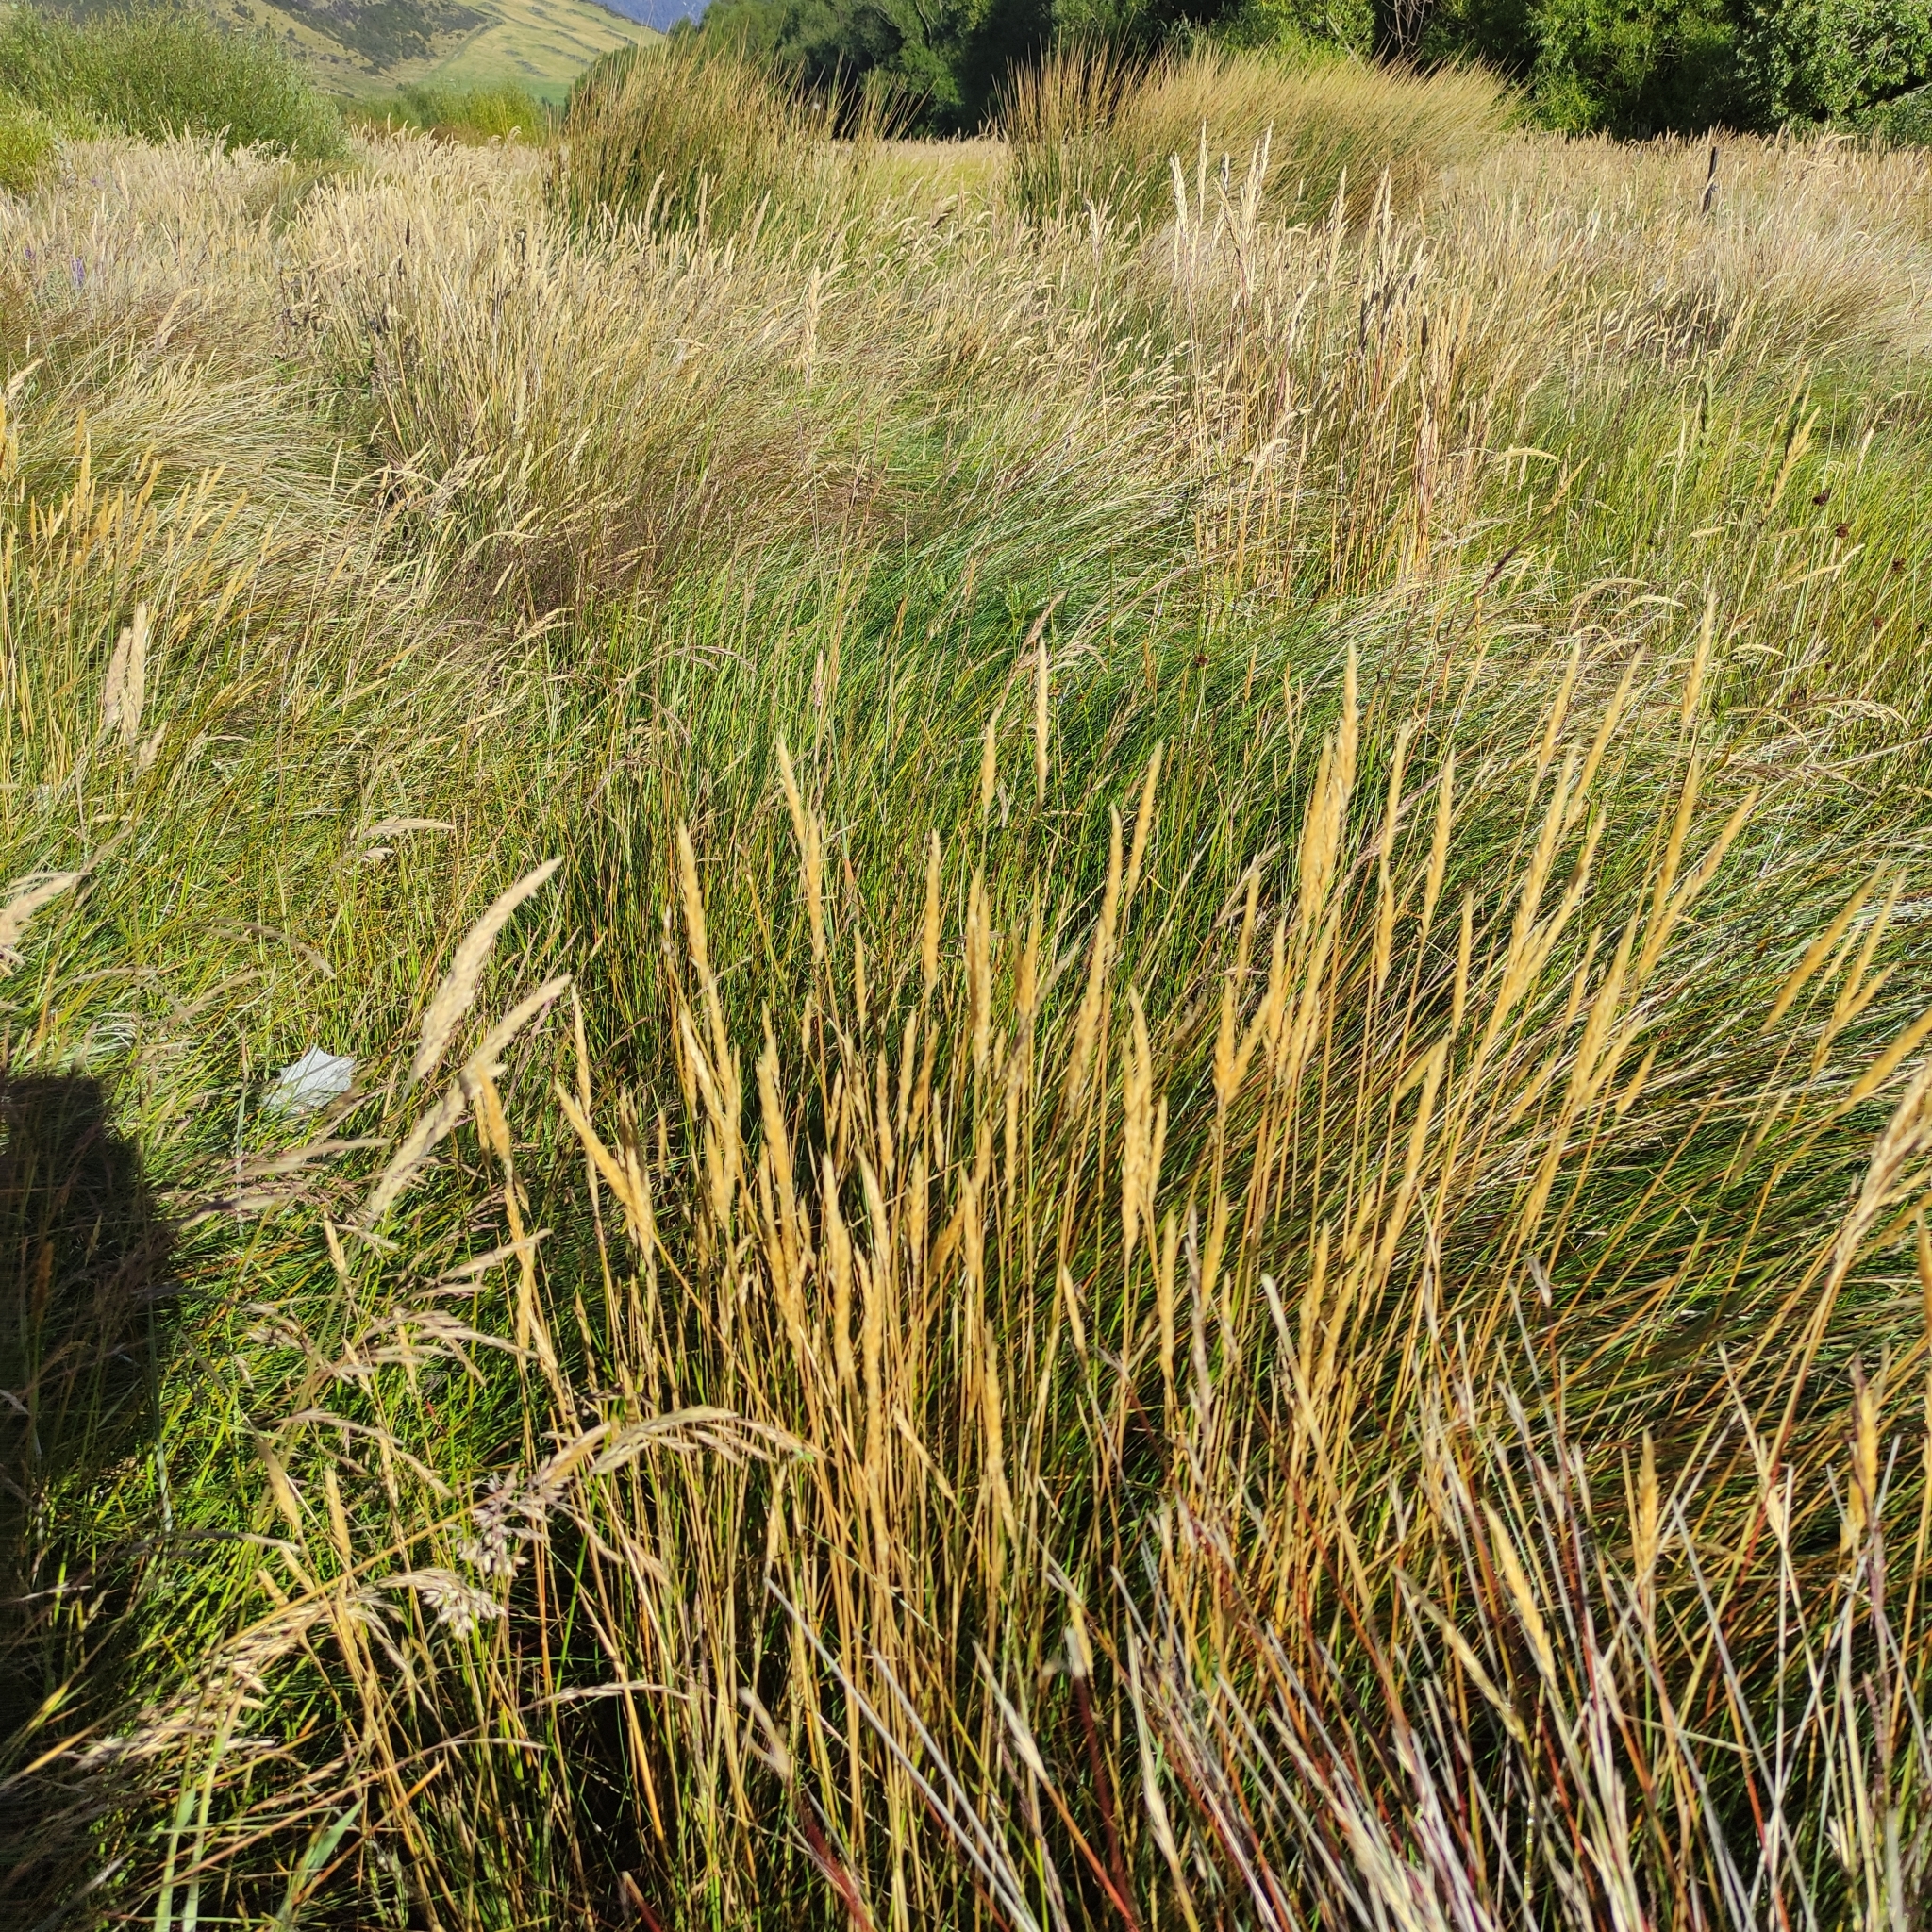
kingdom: Plantae
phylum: Tracheophyta
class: Liliopsida
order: Poales
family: Poaceae
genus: Anthoxanthum
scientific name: Anthoxanthum odoratum
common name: Sweet vernalgrass
